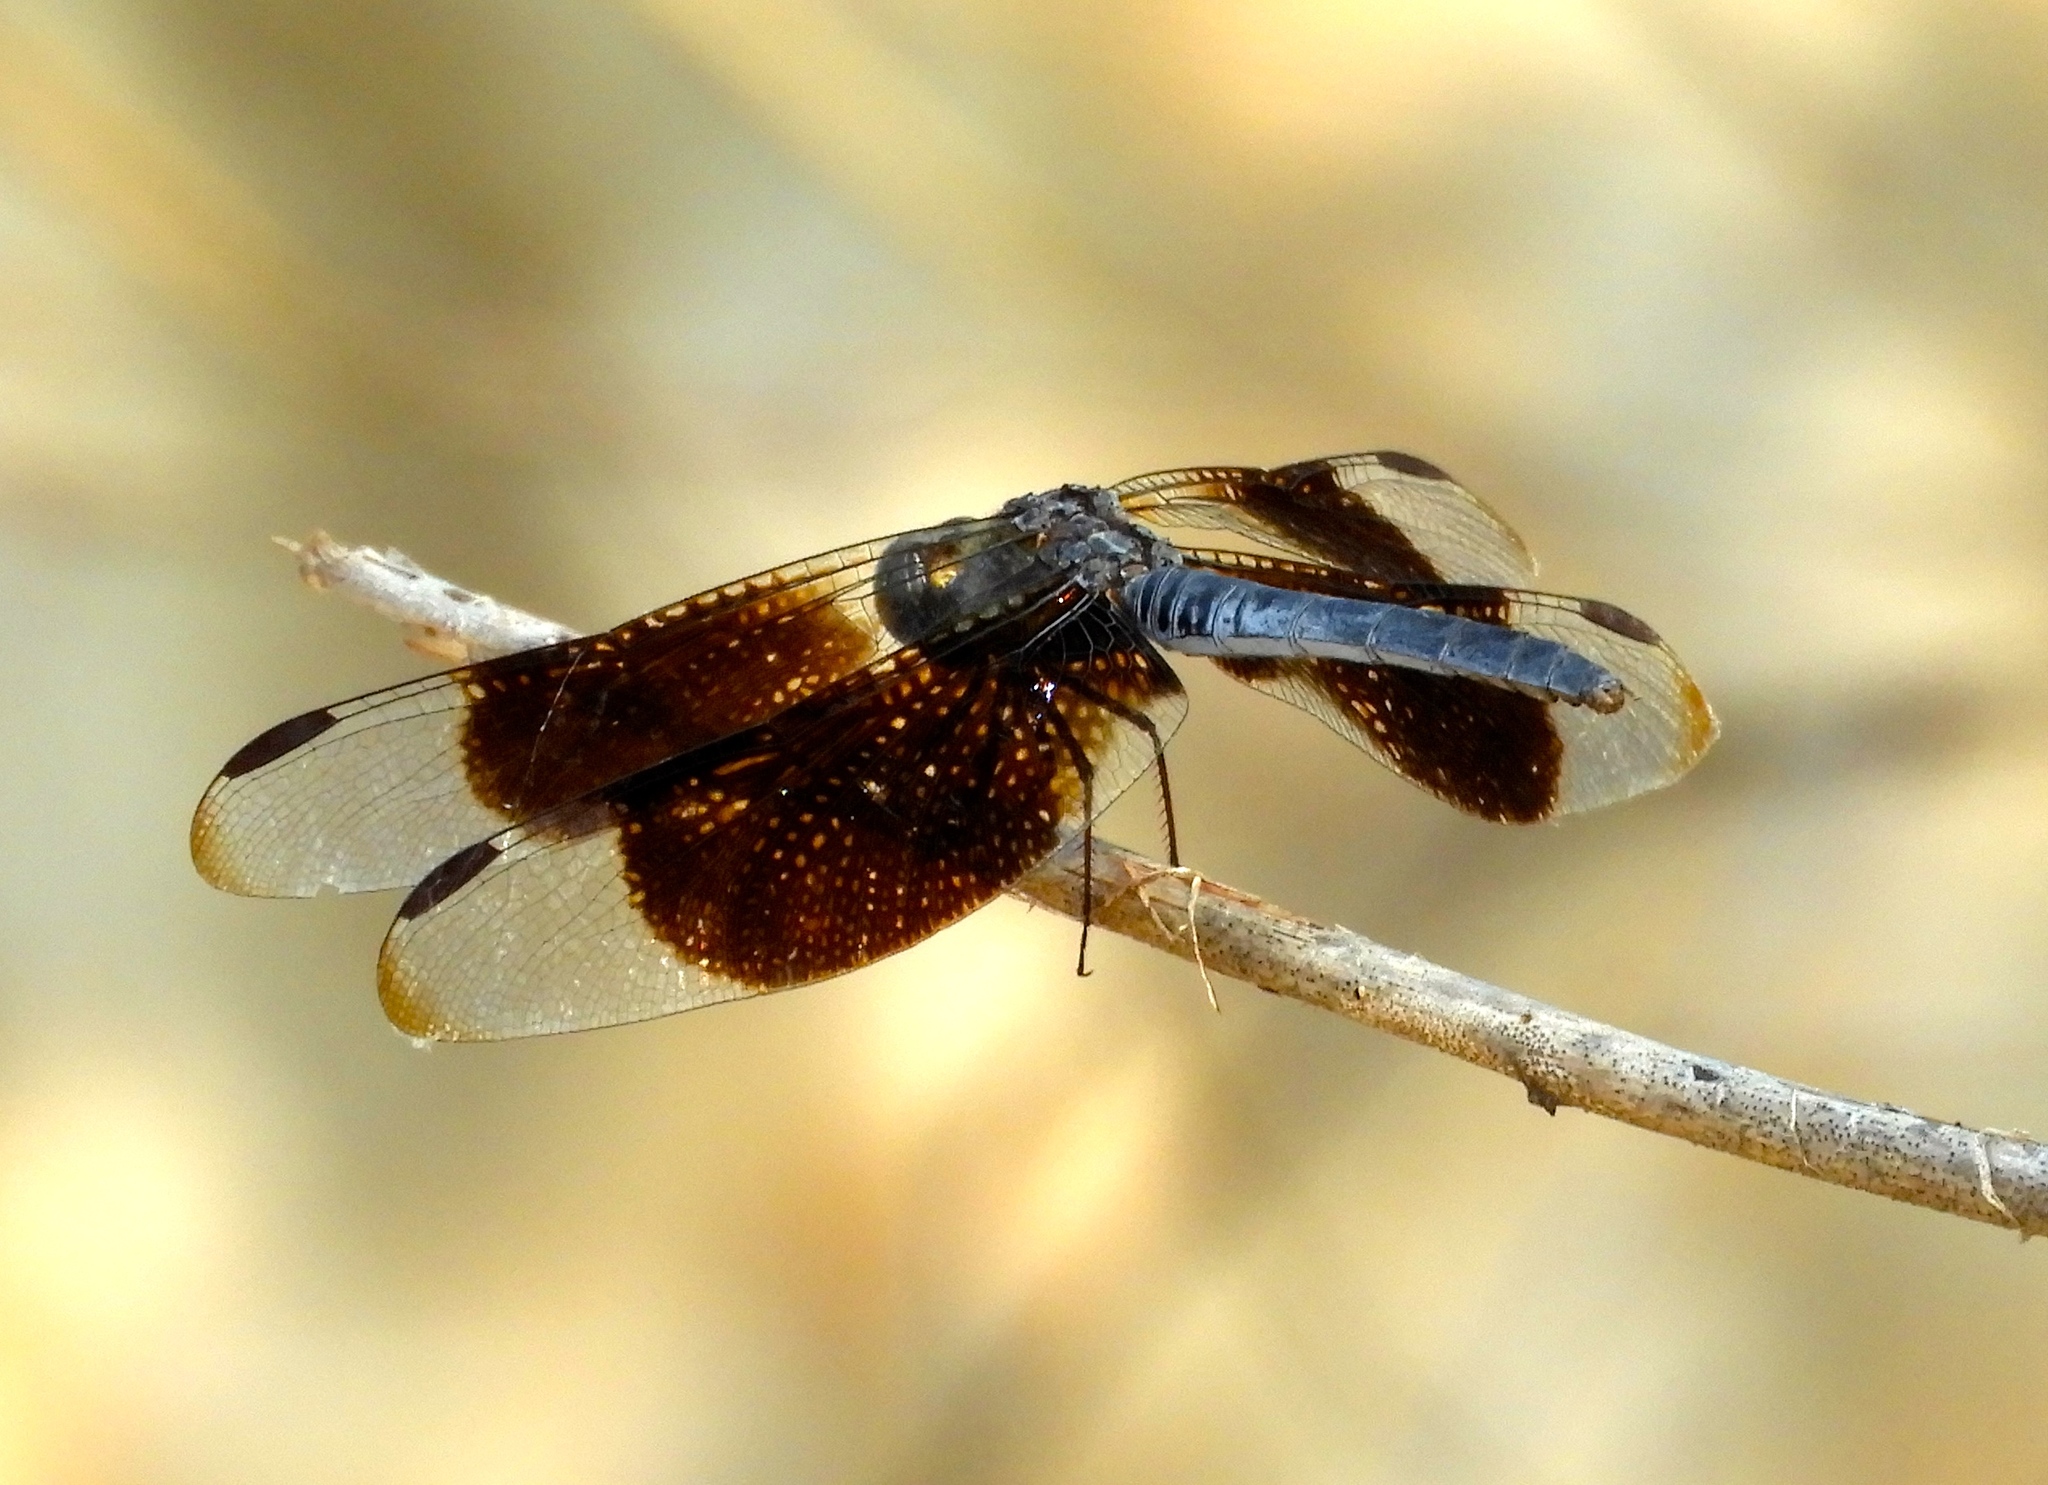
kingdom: Animalia
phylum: Arthropoda
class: Insecta
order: Odonata
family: Libellulidae
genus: Erythrodiplax
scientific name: Erythrodiplax funerea
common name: Black-winged dragonlet
